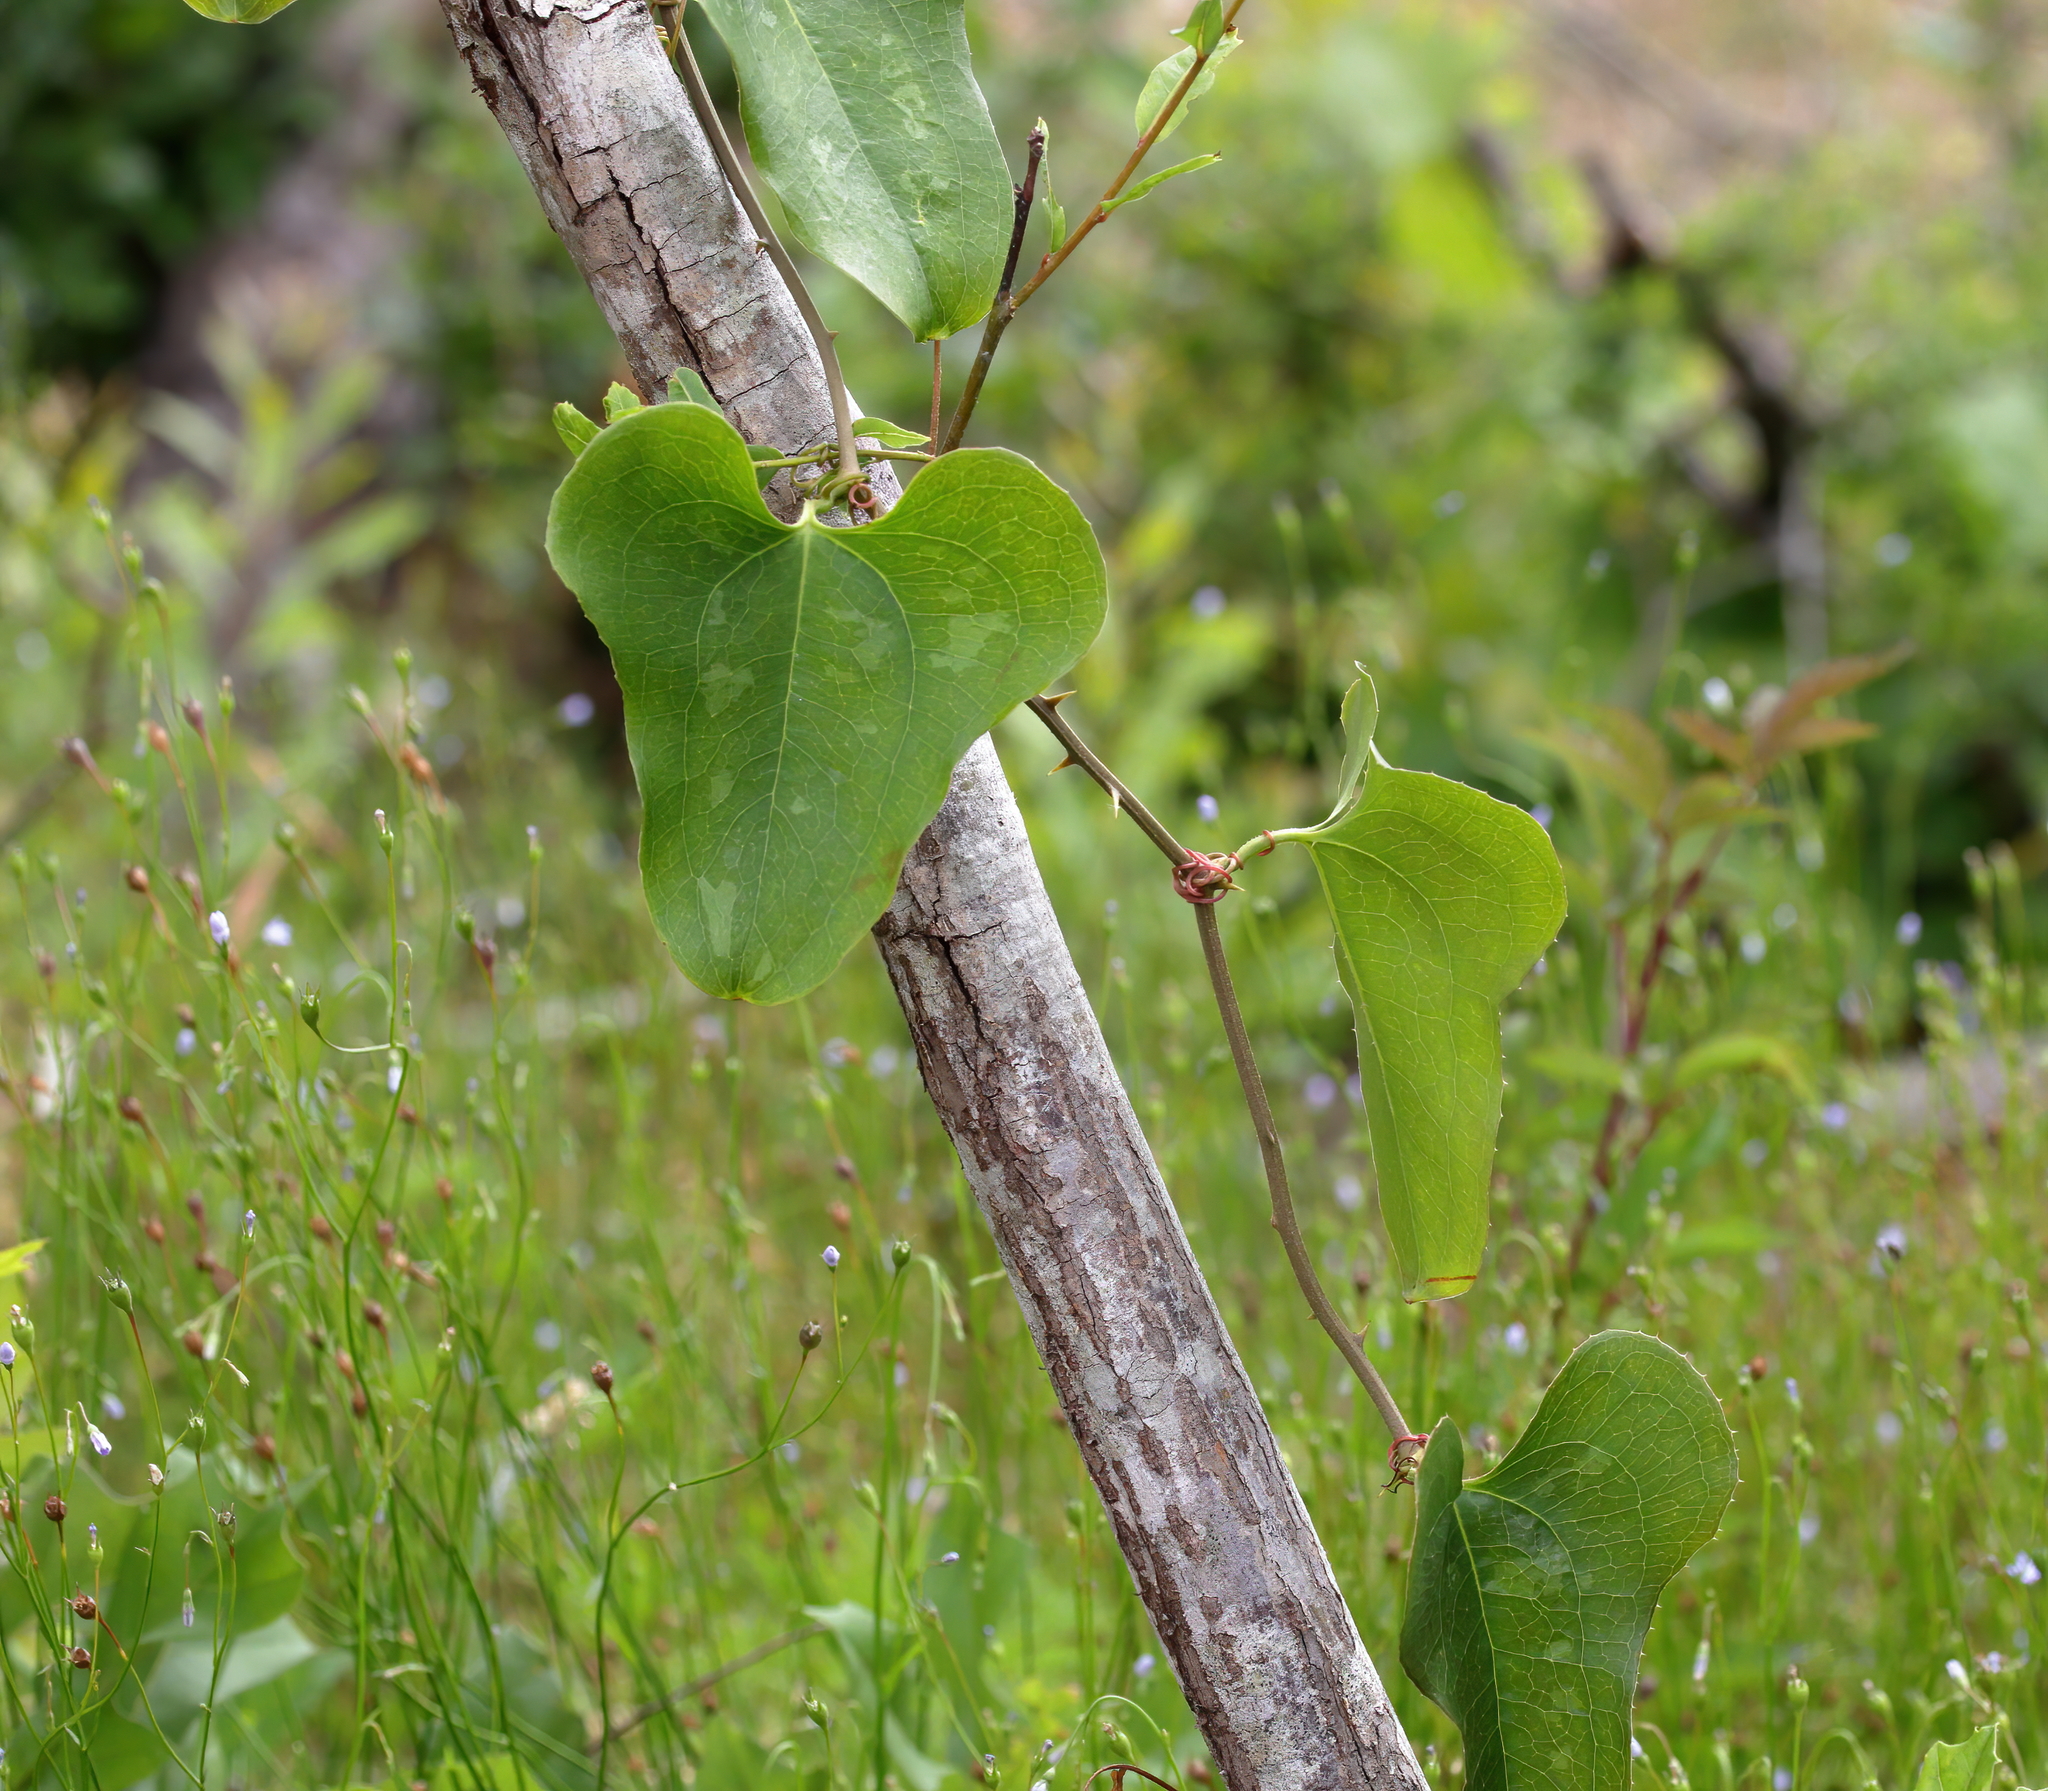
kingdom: Plantae
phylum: Tracheophyta
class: Liliopsida
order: Liliales
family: Smilacaceae
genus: Smilax
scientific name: Smilax bona-nox
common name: Catbrier
